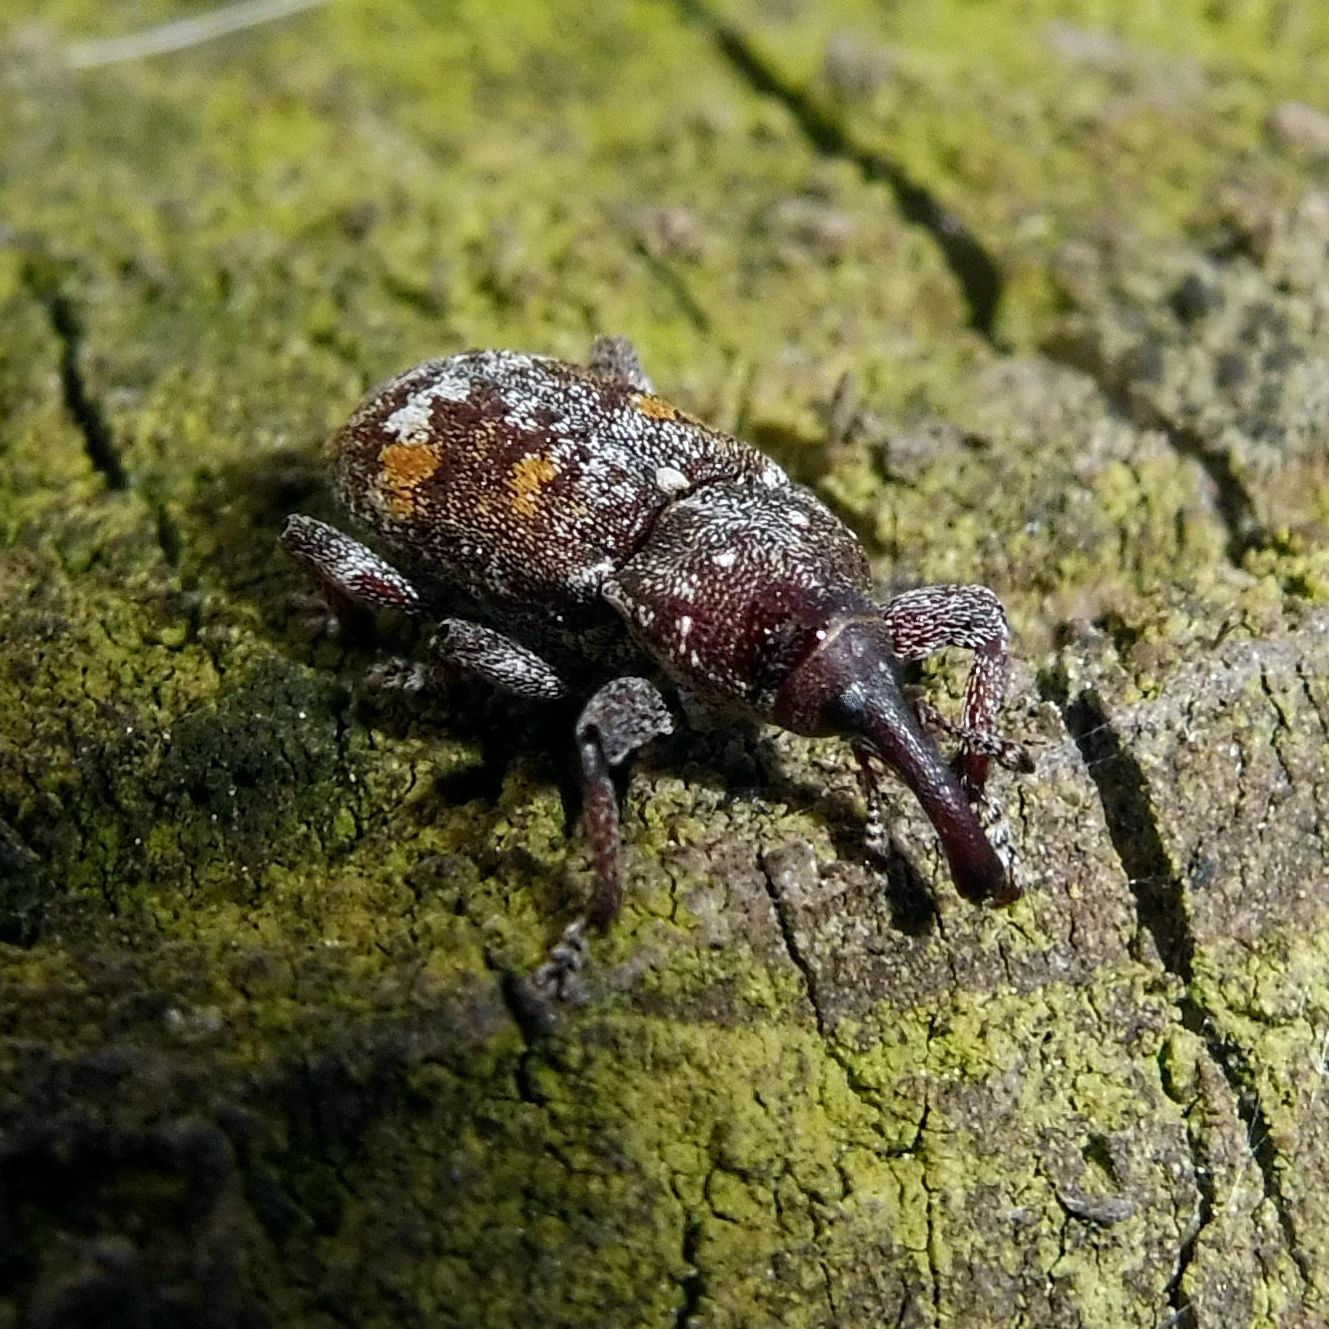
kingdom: Animalia
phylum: Arthropoda
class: Insecta
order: Coleoptera
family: Curculionidae
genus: Pissodes
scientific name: Pissodes castaneus
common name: Banded pine weevil
